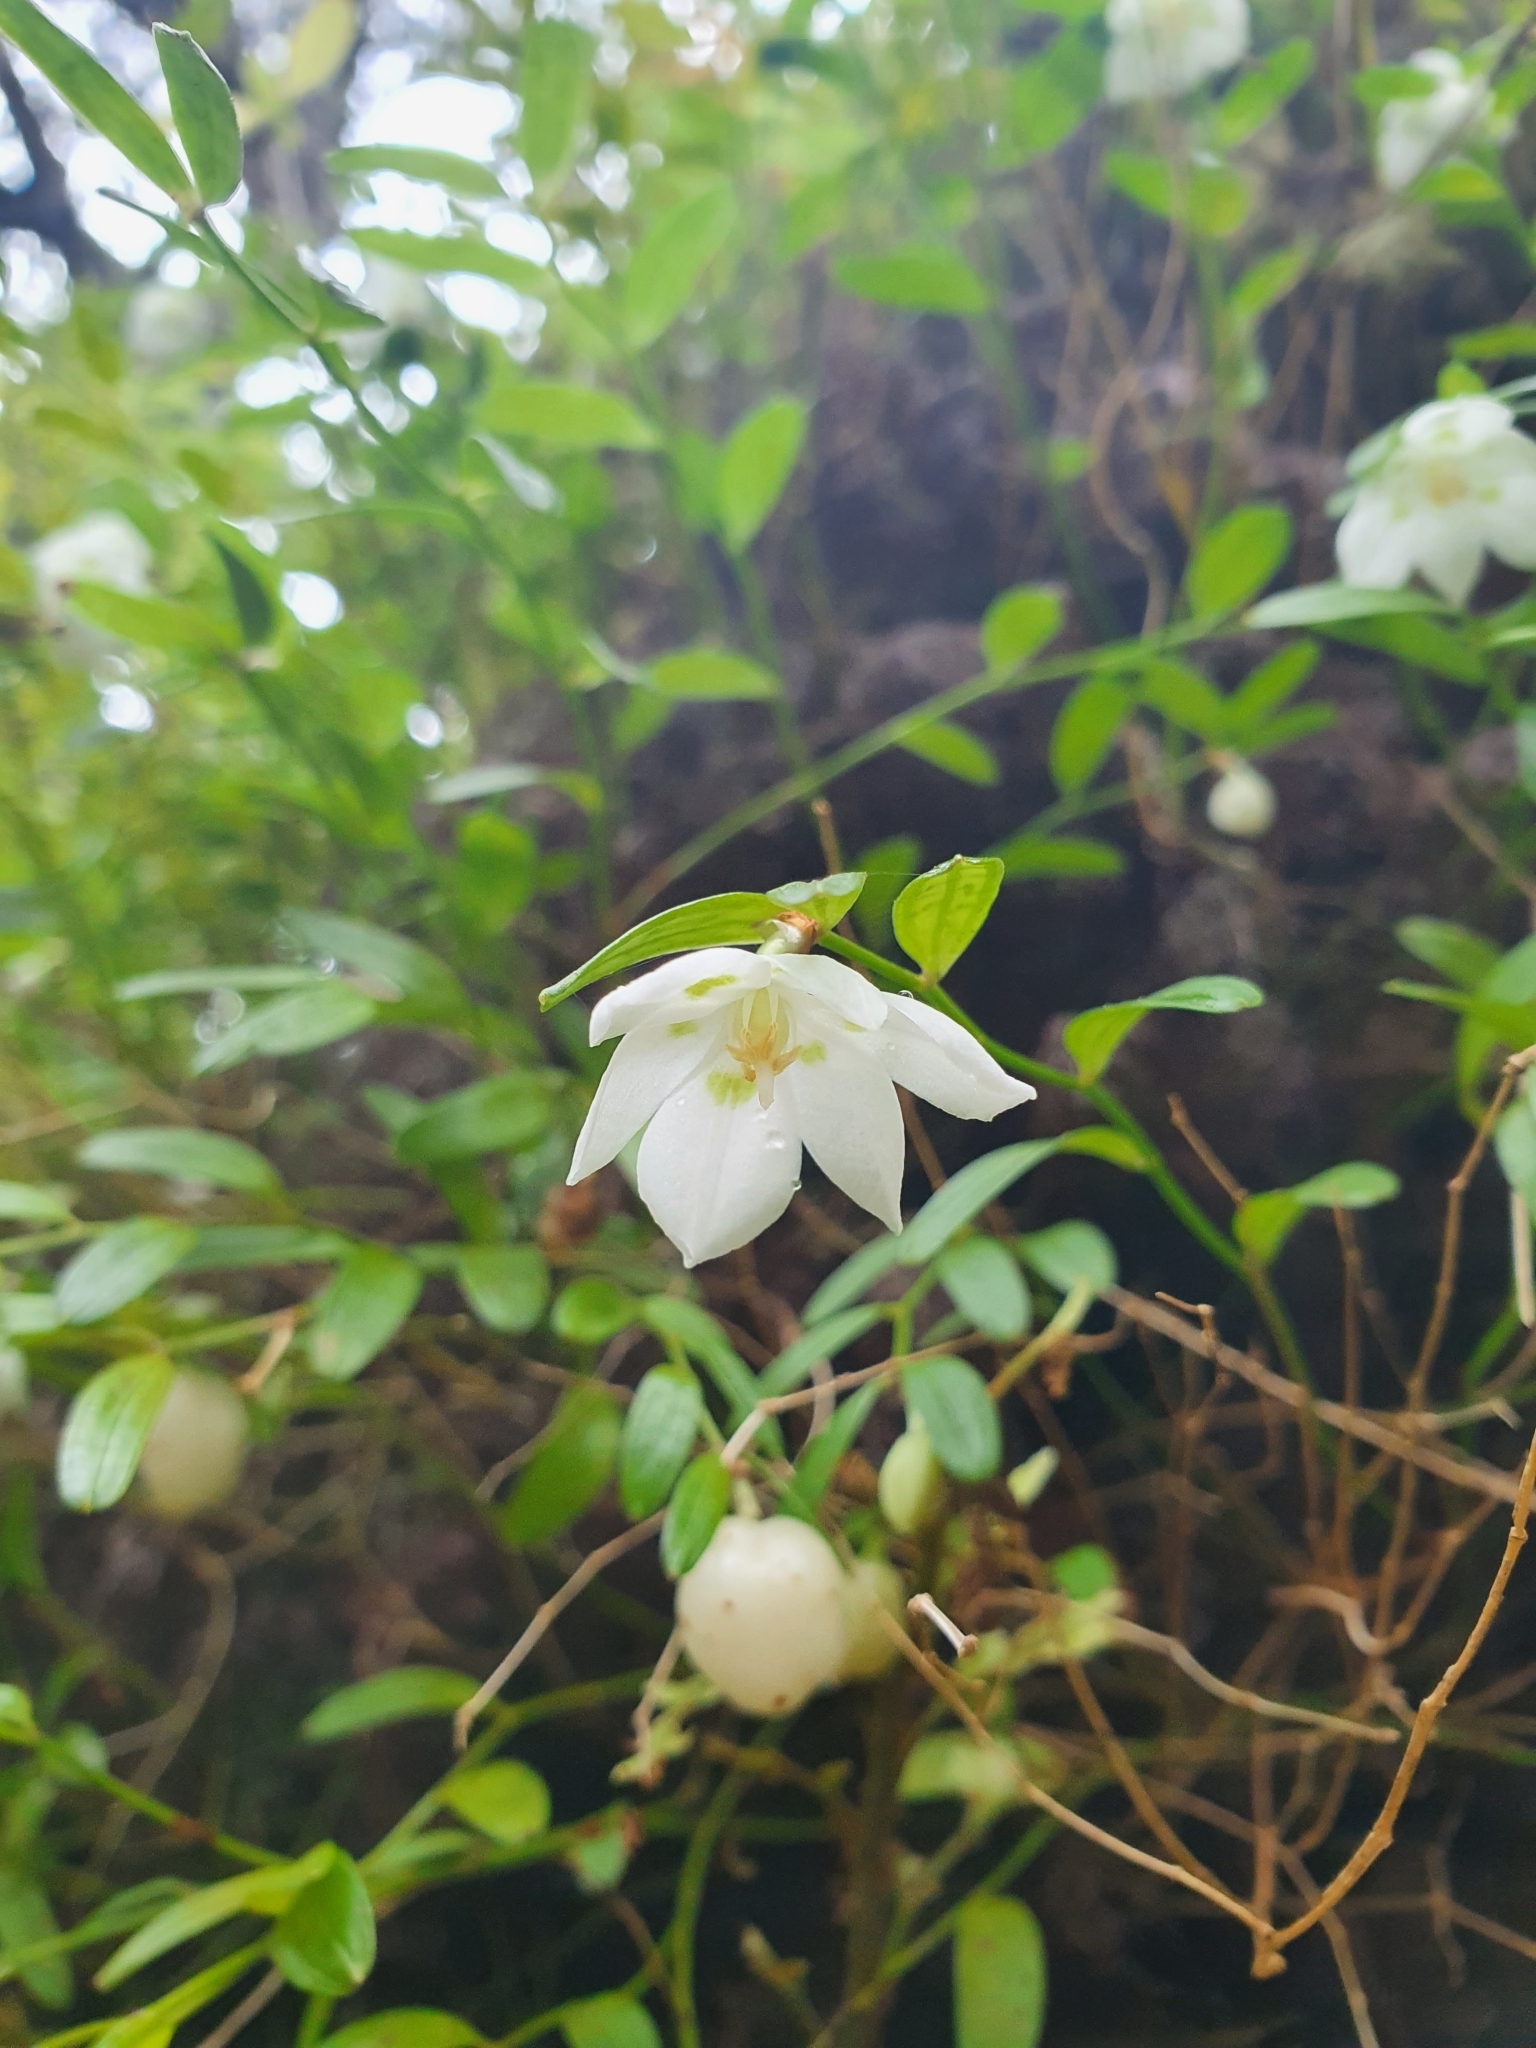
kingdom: Plantae
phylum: Tracheophyta
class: Liliopsida
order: Liliales
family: Alstroemeriaceae
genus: Luzuriaga
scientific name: Luzuriaga parviflora
